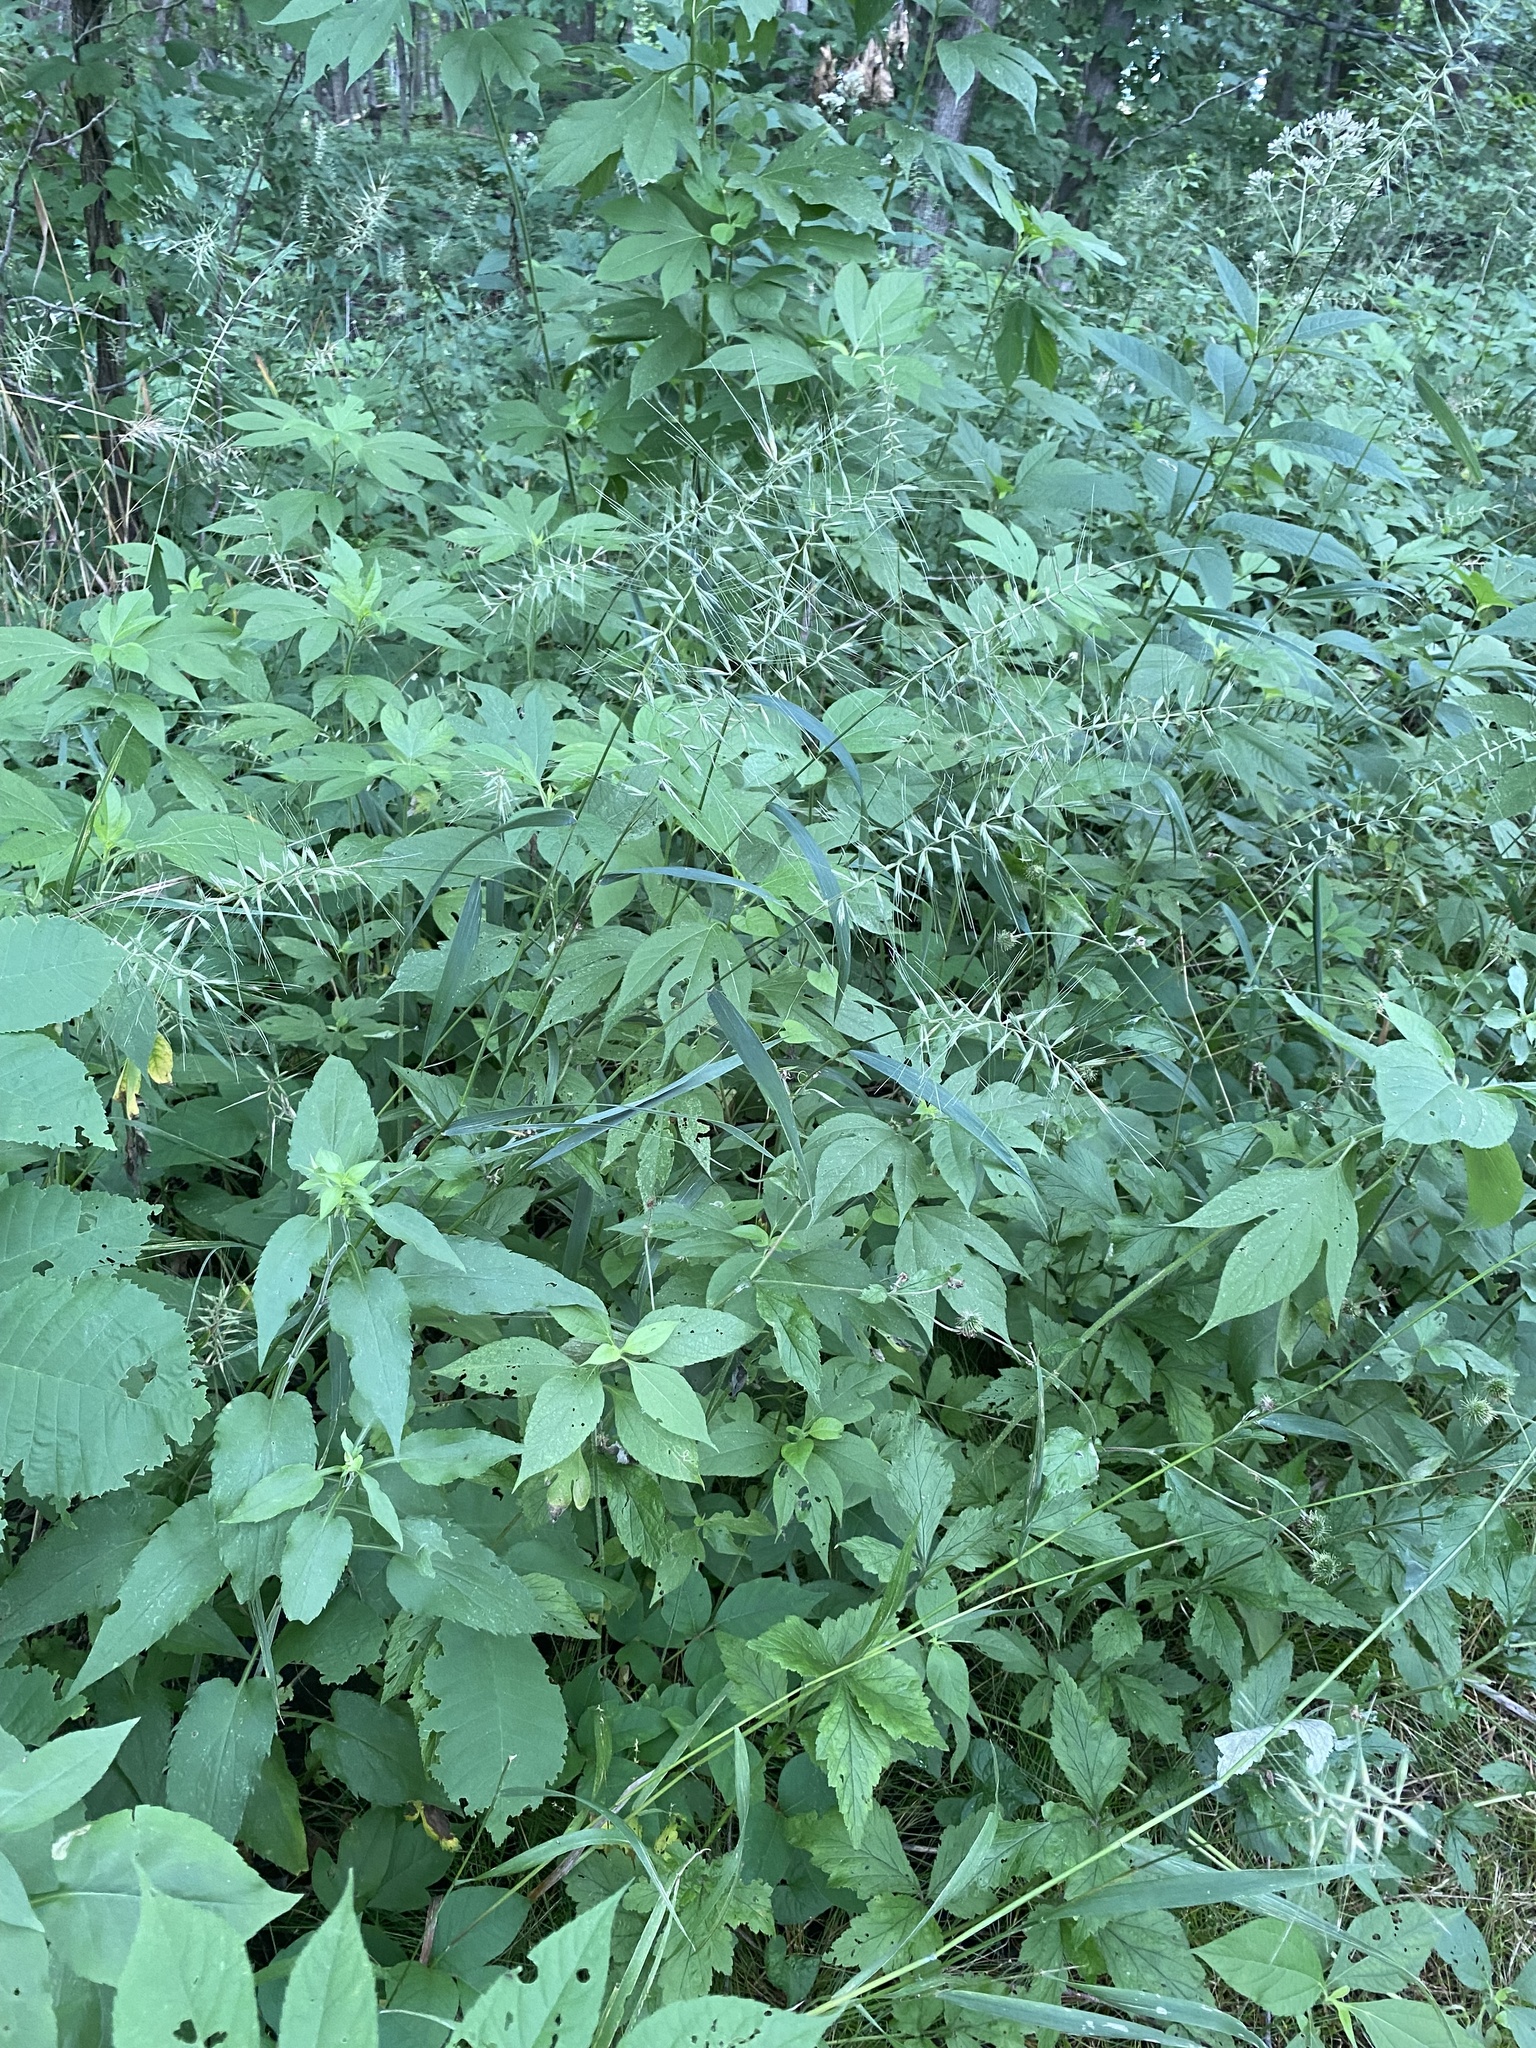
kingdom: Plantae
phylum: Tracheophyta
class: Liliopsida
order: Poales
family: Poaceae
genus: Elymus
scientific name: Elymus hystrix
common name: Bottlebrush grass
